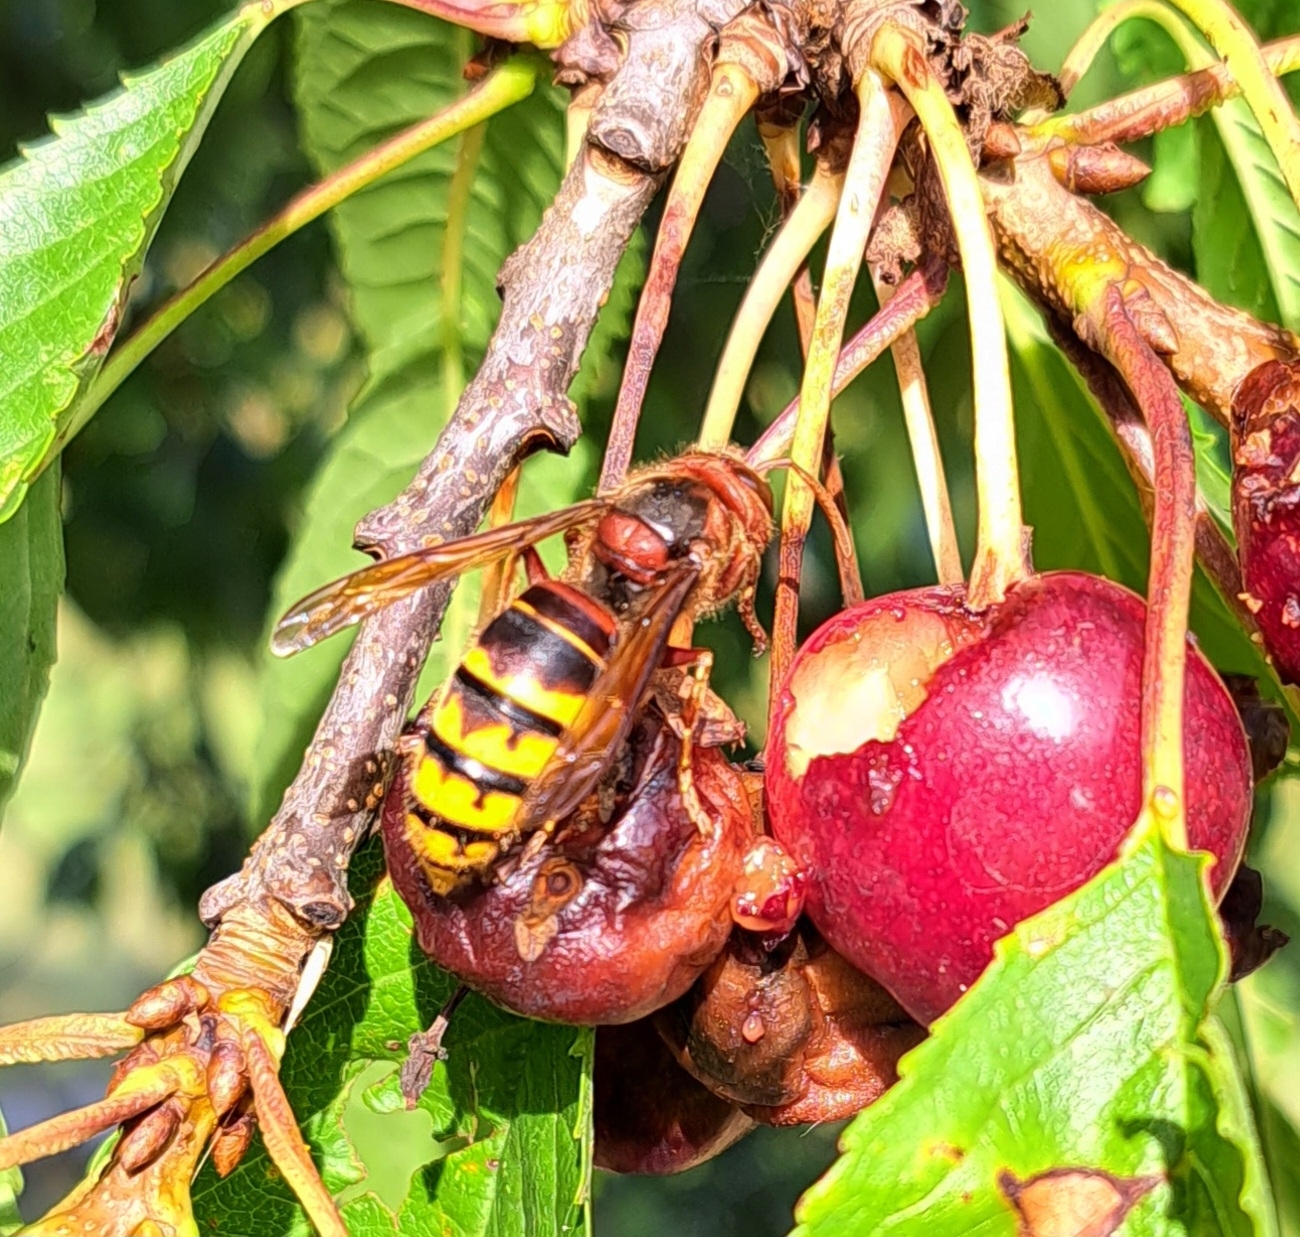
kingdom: Animalia
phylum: Arthropoda
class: Insecta
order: Hymenoptera
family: Vespidae
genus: Vespa
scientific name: Vespa crabro
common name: Hornet
